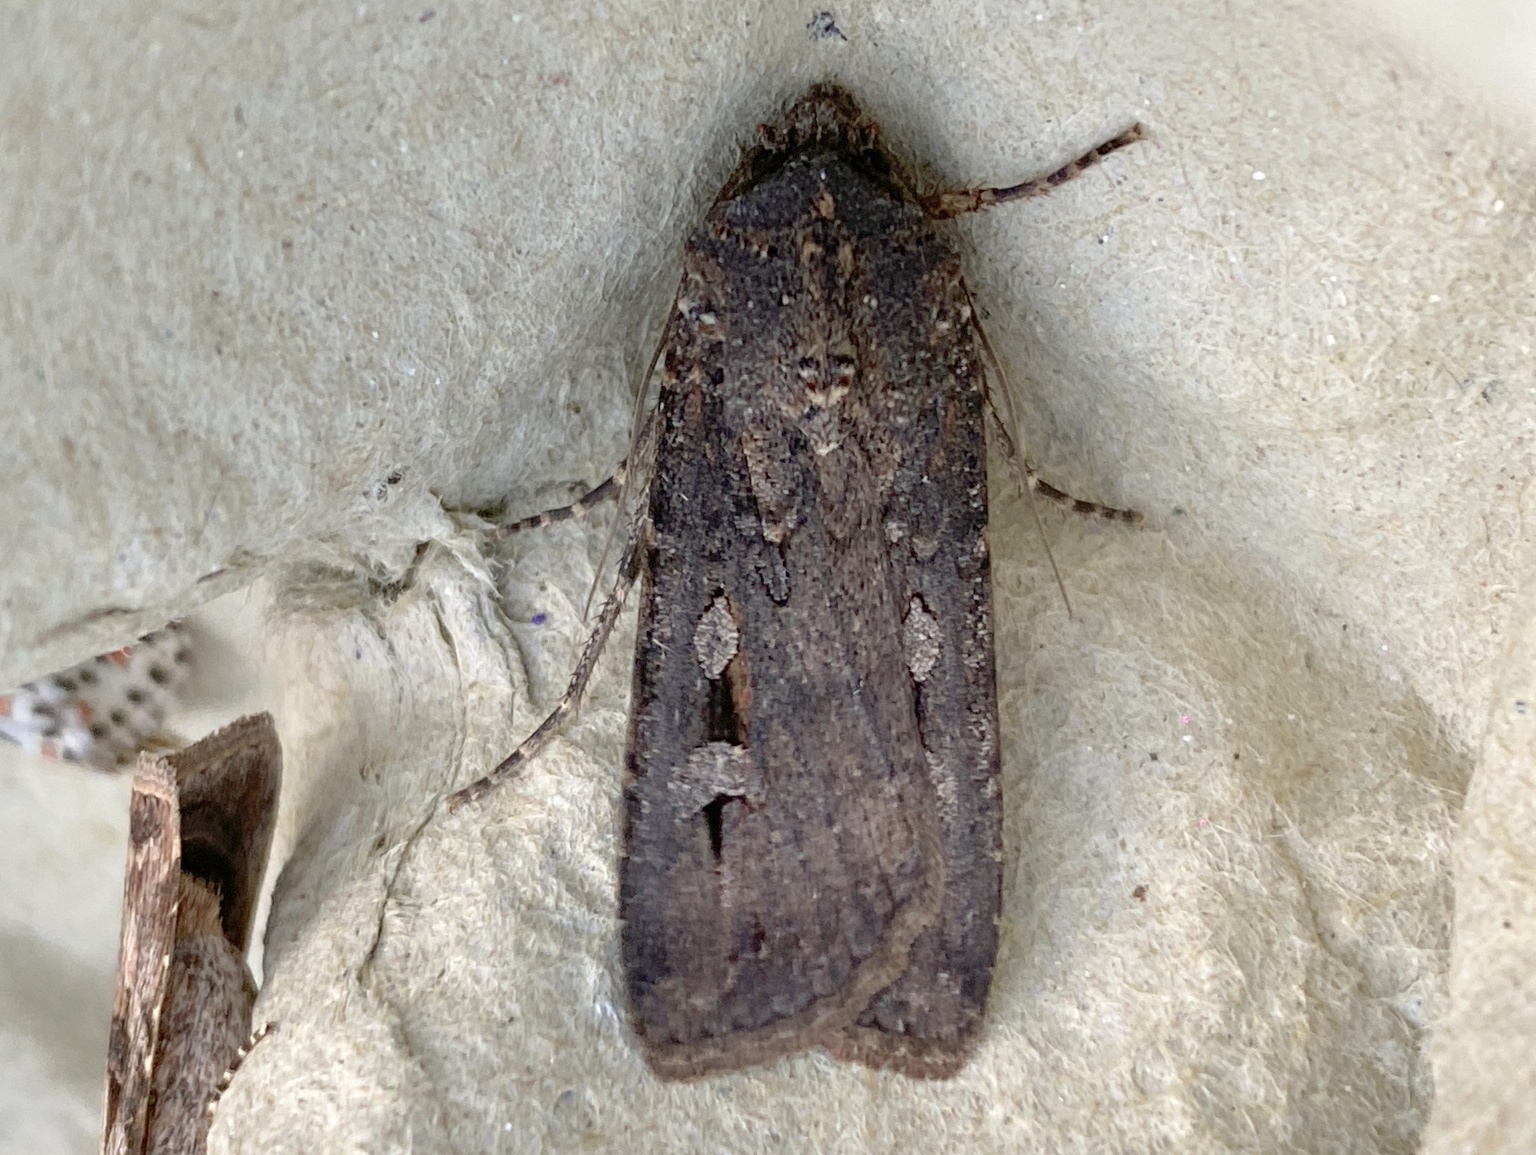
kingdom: Animalia
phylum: Arthropoda
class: Insecta
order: Lepidoptera
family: Noctuidae
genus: Agrotis
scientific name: Agrotis infusa
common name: Bogong moth
